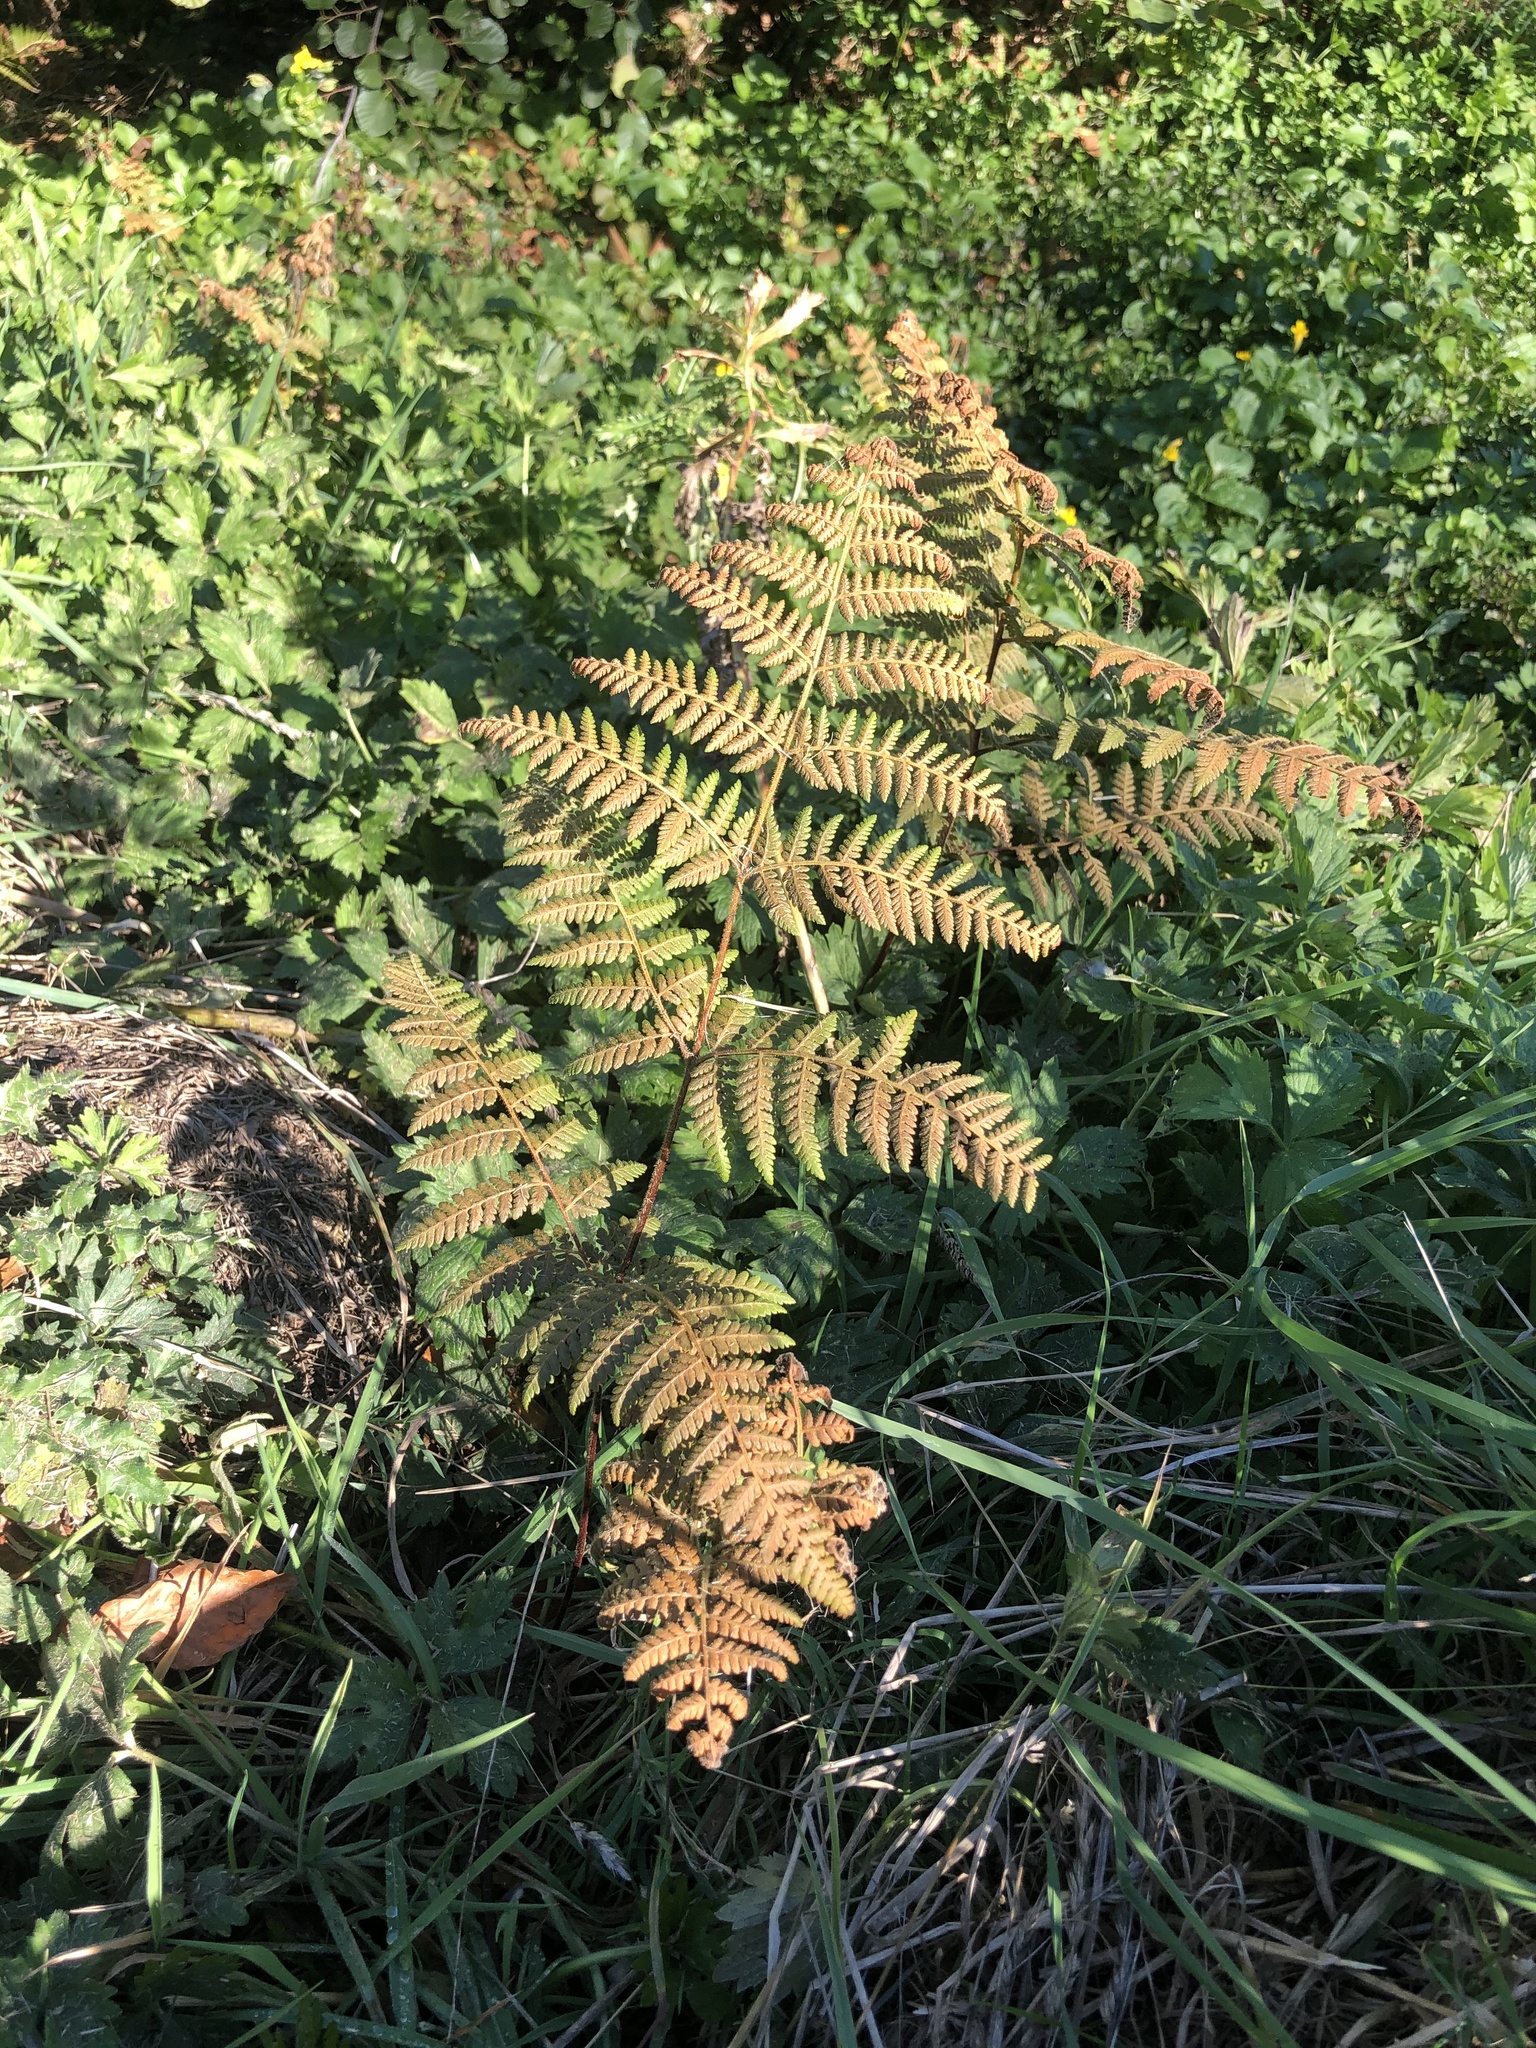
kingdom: Plantae
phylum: Tracheophyta
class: Polypodiopsida
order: Polypodiales
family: Dennstaedtiaceae
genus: Hypolepis
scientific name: Hypolepis ambigua
